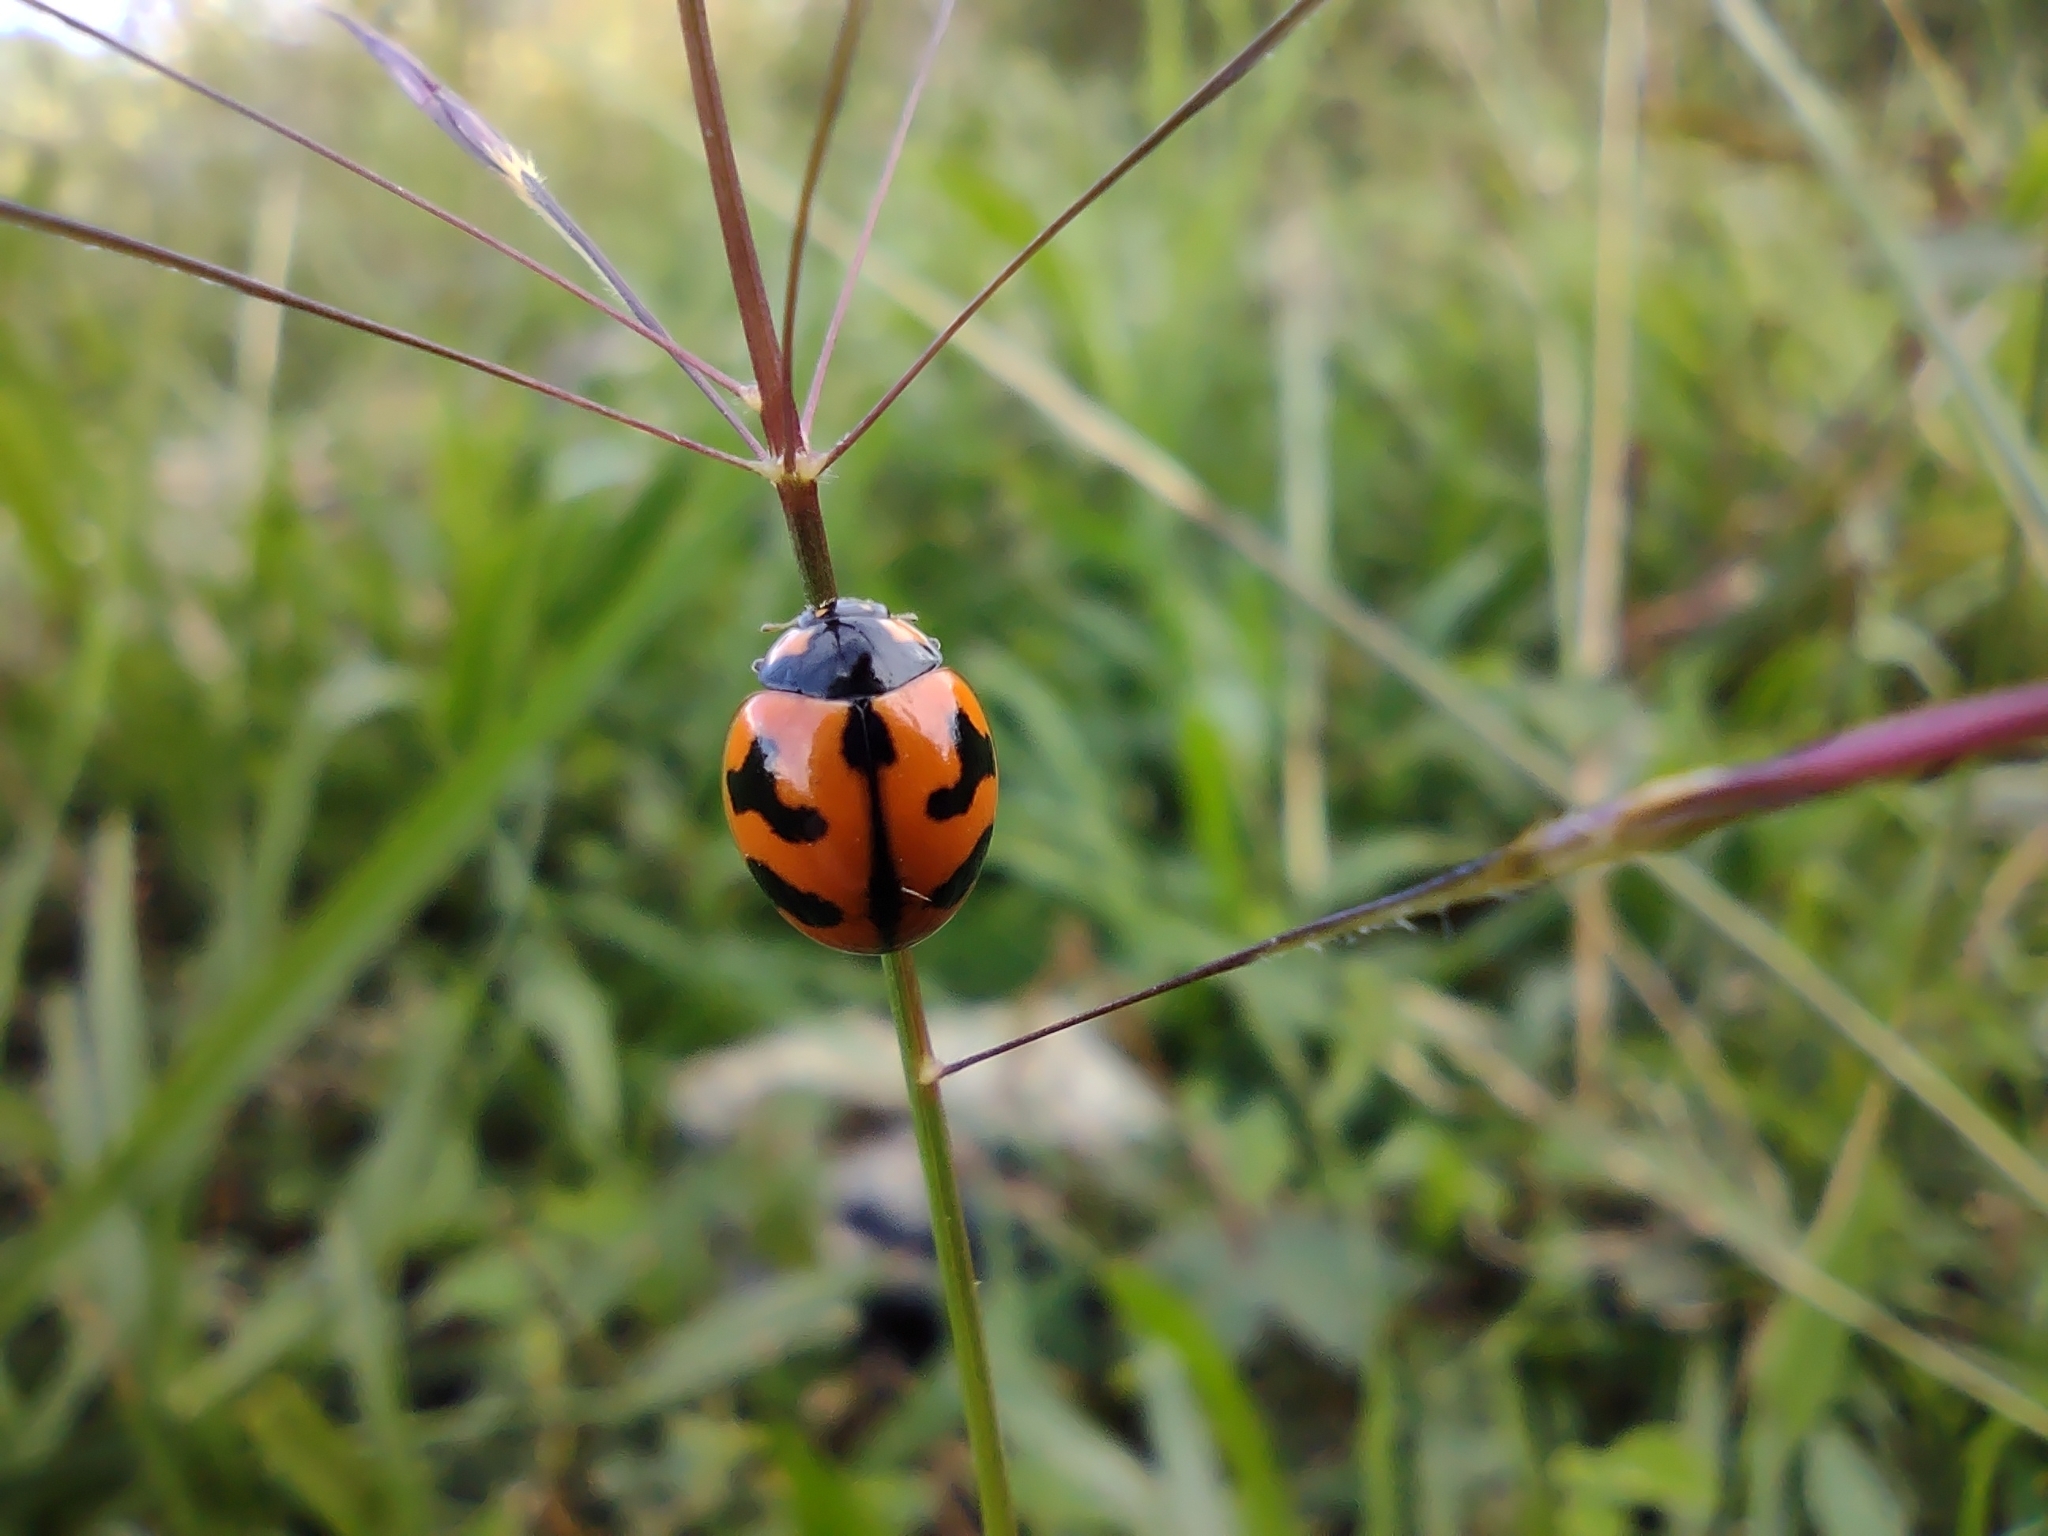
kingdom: Animalia
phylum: Arthropoda
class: Insecta
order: Coleoptera
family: Coccinellidae
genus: Coccinella
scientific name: Coccinella transversalis
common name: Transverse lady beetle
